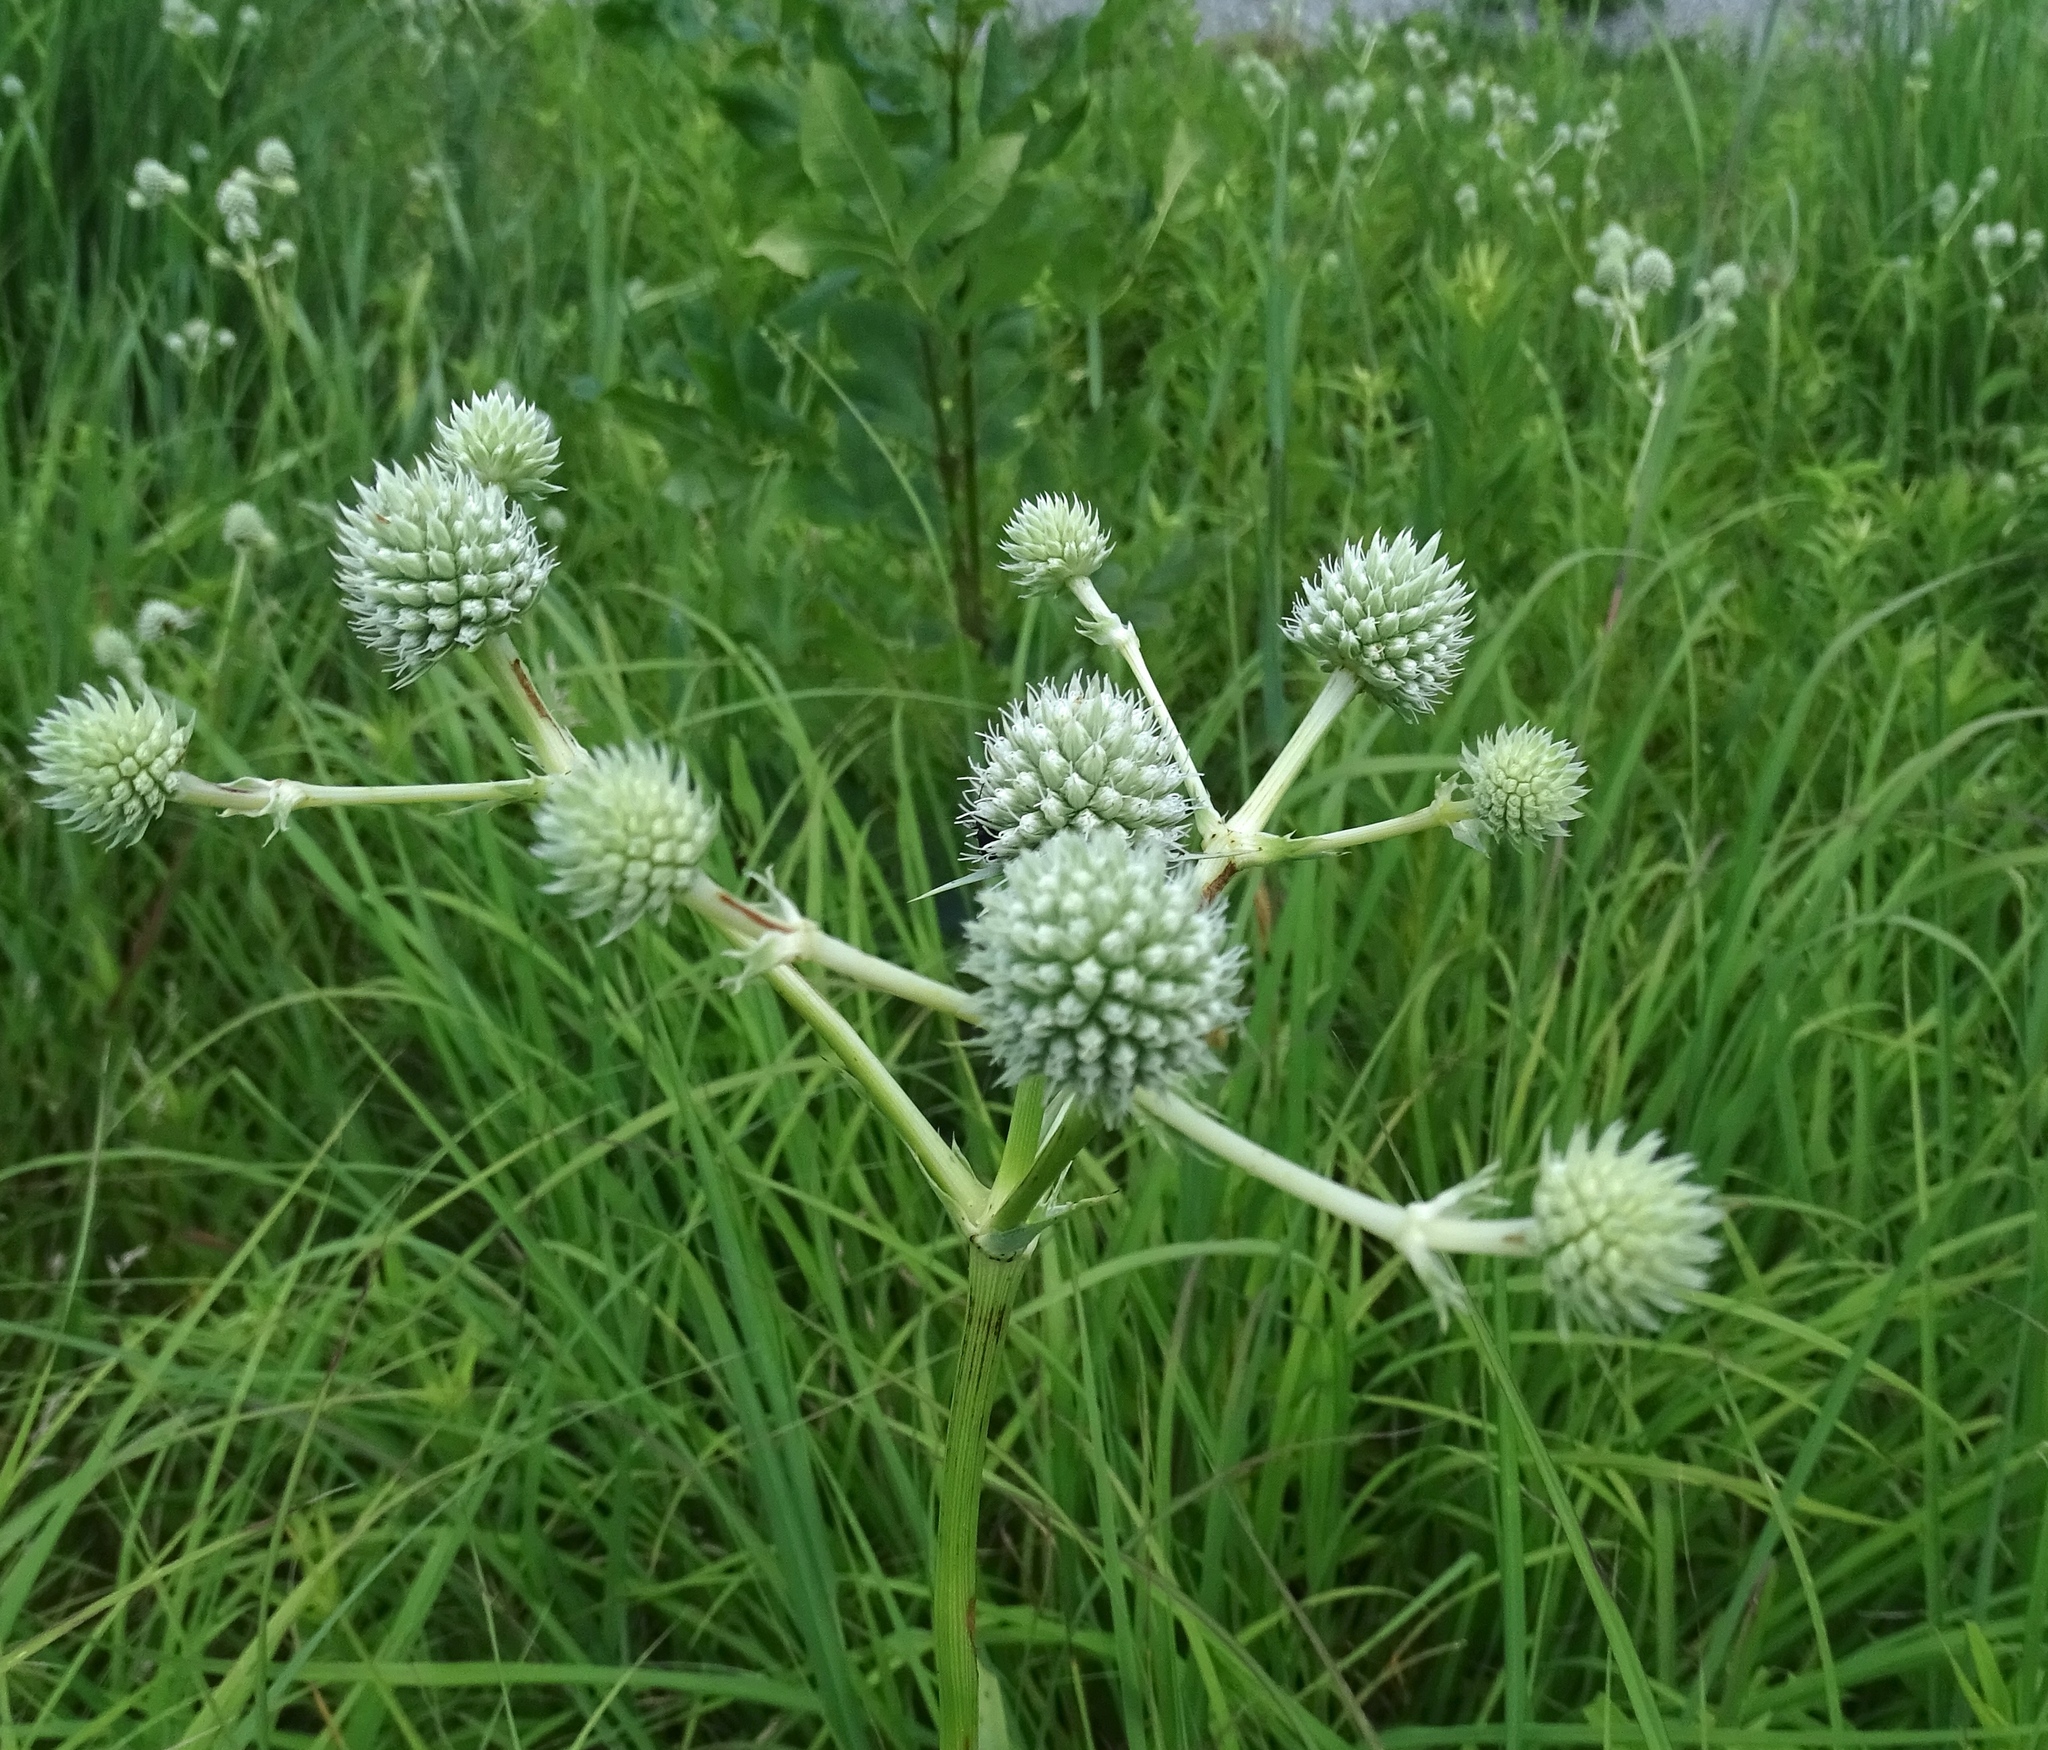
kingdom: Plantae
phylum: Tracheophyta
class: Magnoliopsida
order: Apiales
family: Apiaceae
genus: Eryngium
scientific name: Eryngium yuccifolium
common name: Button eryngo
